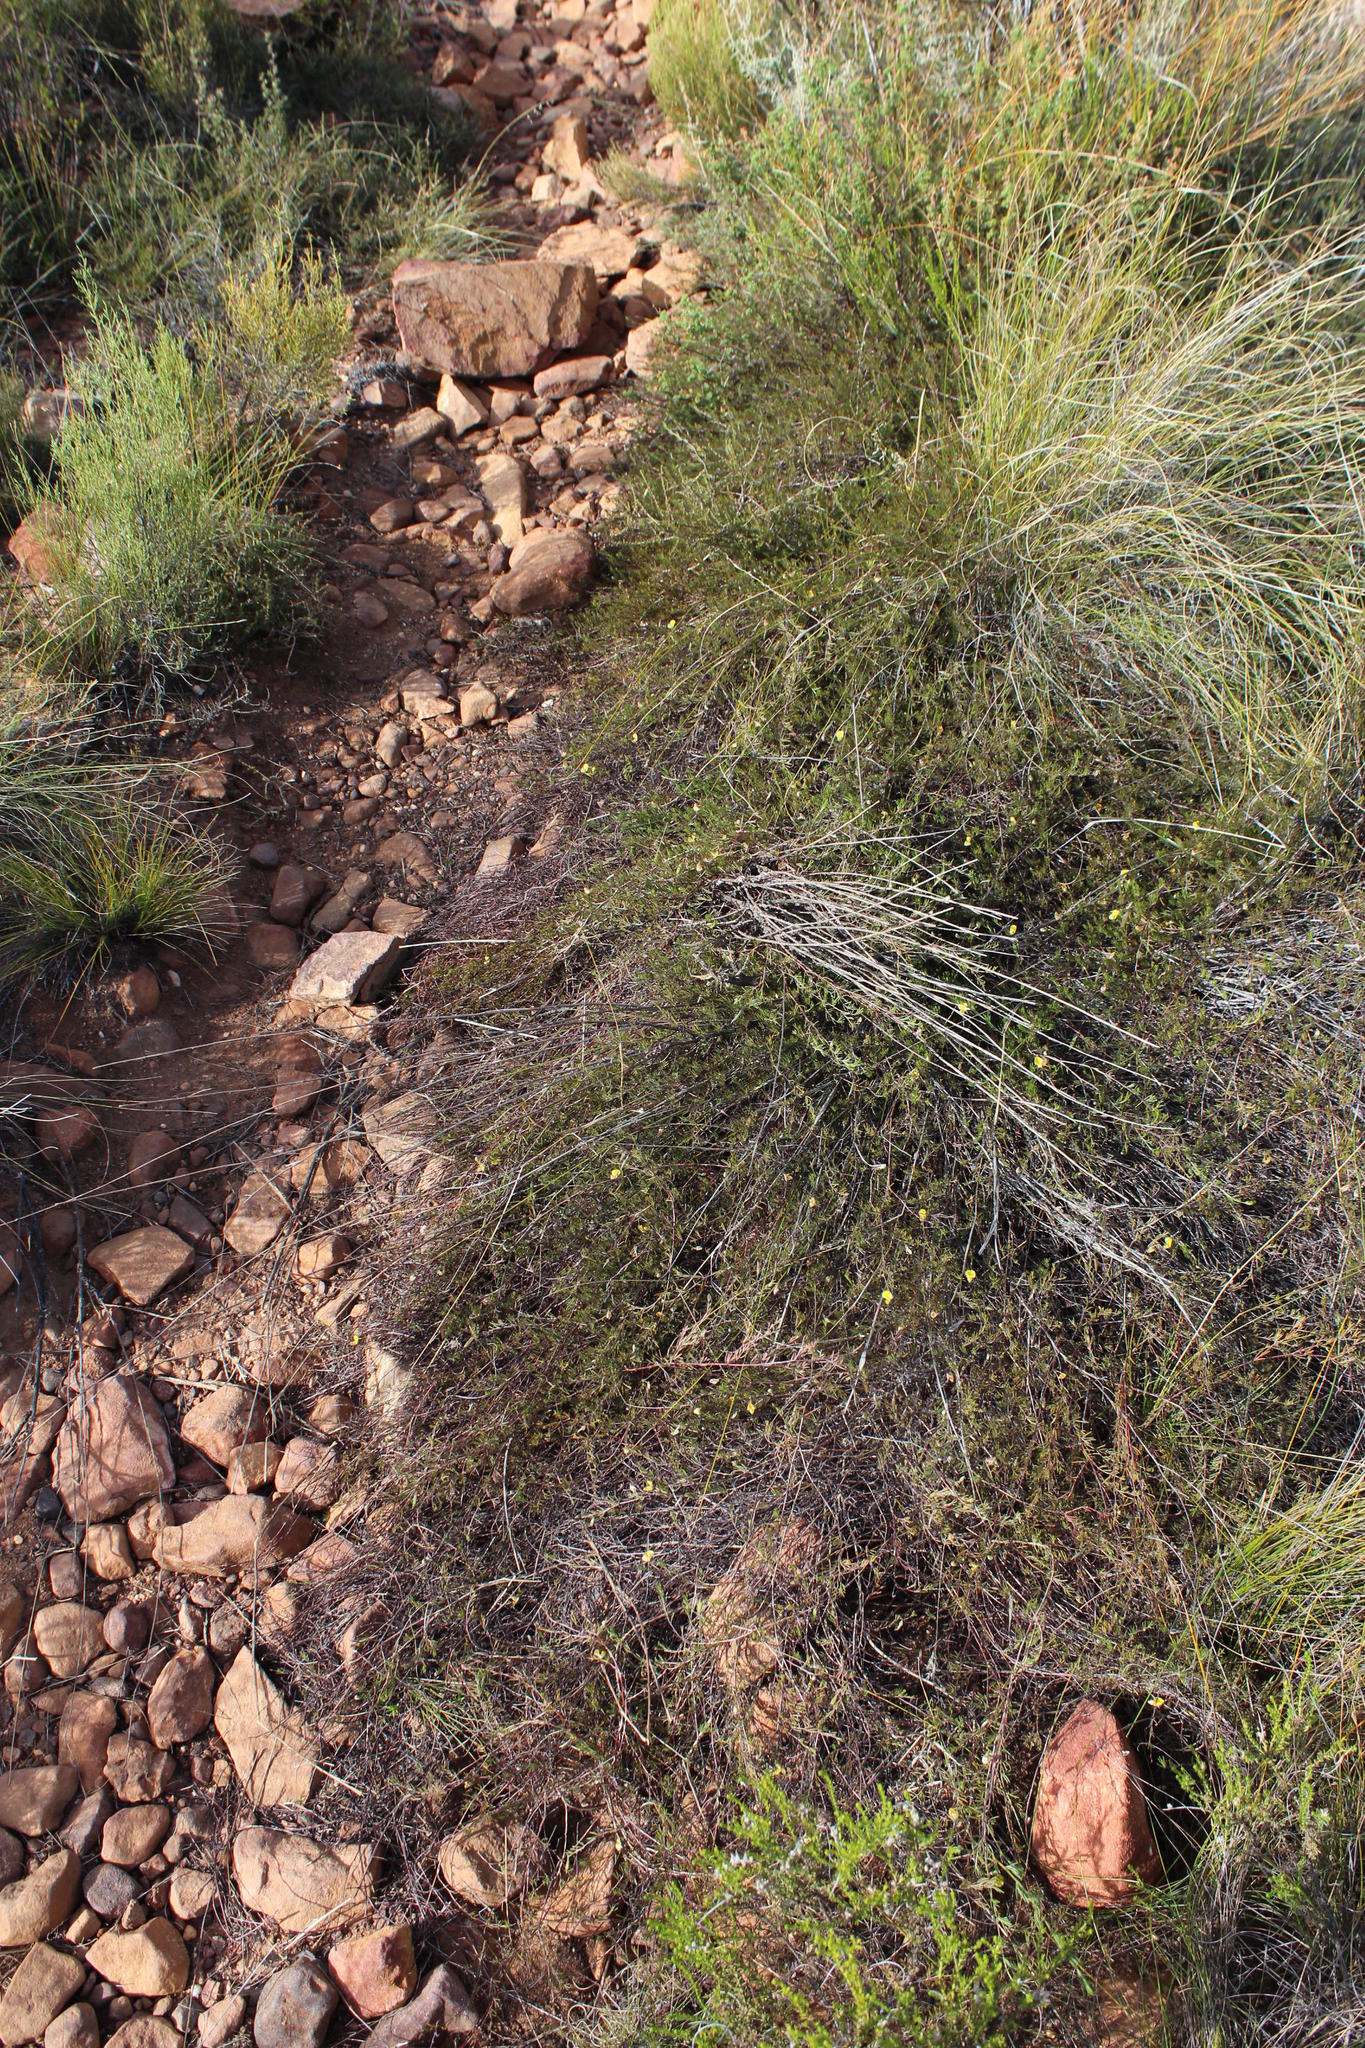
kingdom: Plantae
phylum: Tracheophyta
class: Magnoliopsida
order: Fabales
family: Fabaceae
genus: Aspalathus
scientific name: Aspalathus bracteata
